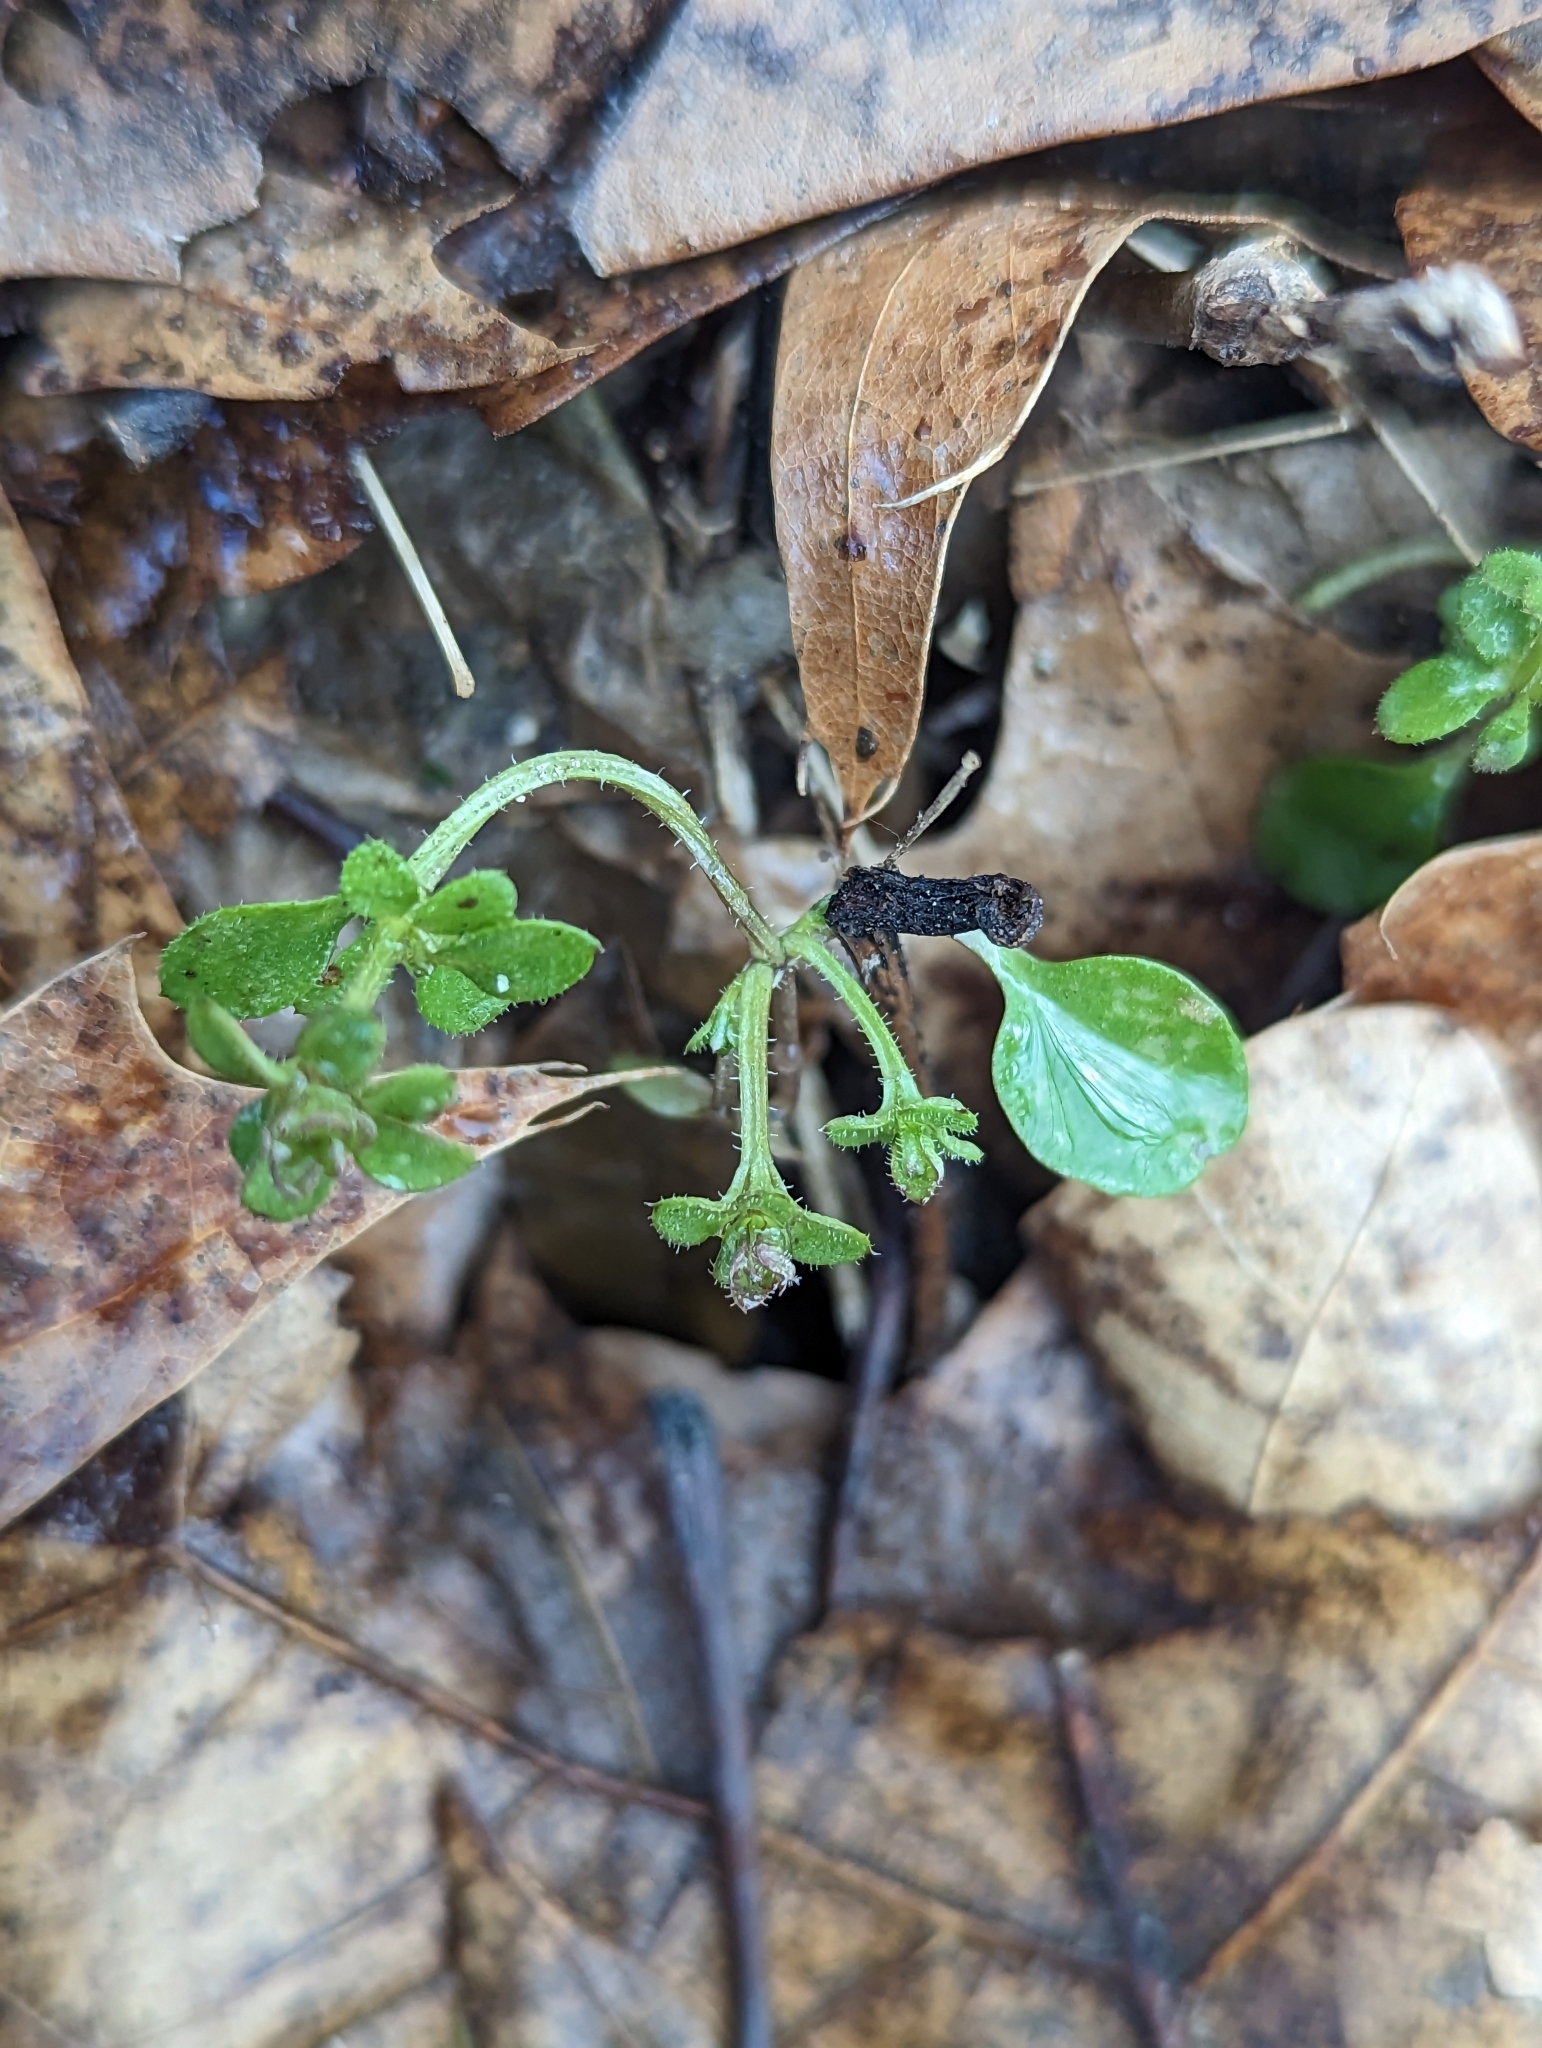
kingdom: Plantae
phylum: Tracheophyta
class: Magnoliopsida
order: Gentianales
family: Rubiaceae
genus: Galium
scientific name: Galium aparine
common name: Cleavers
